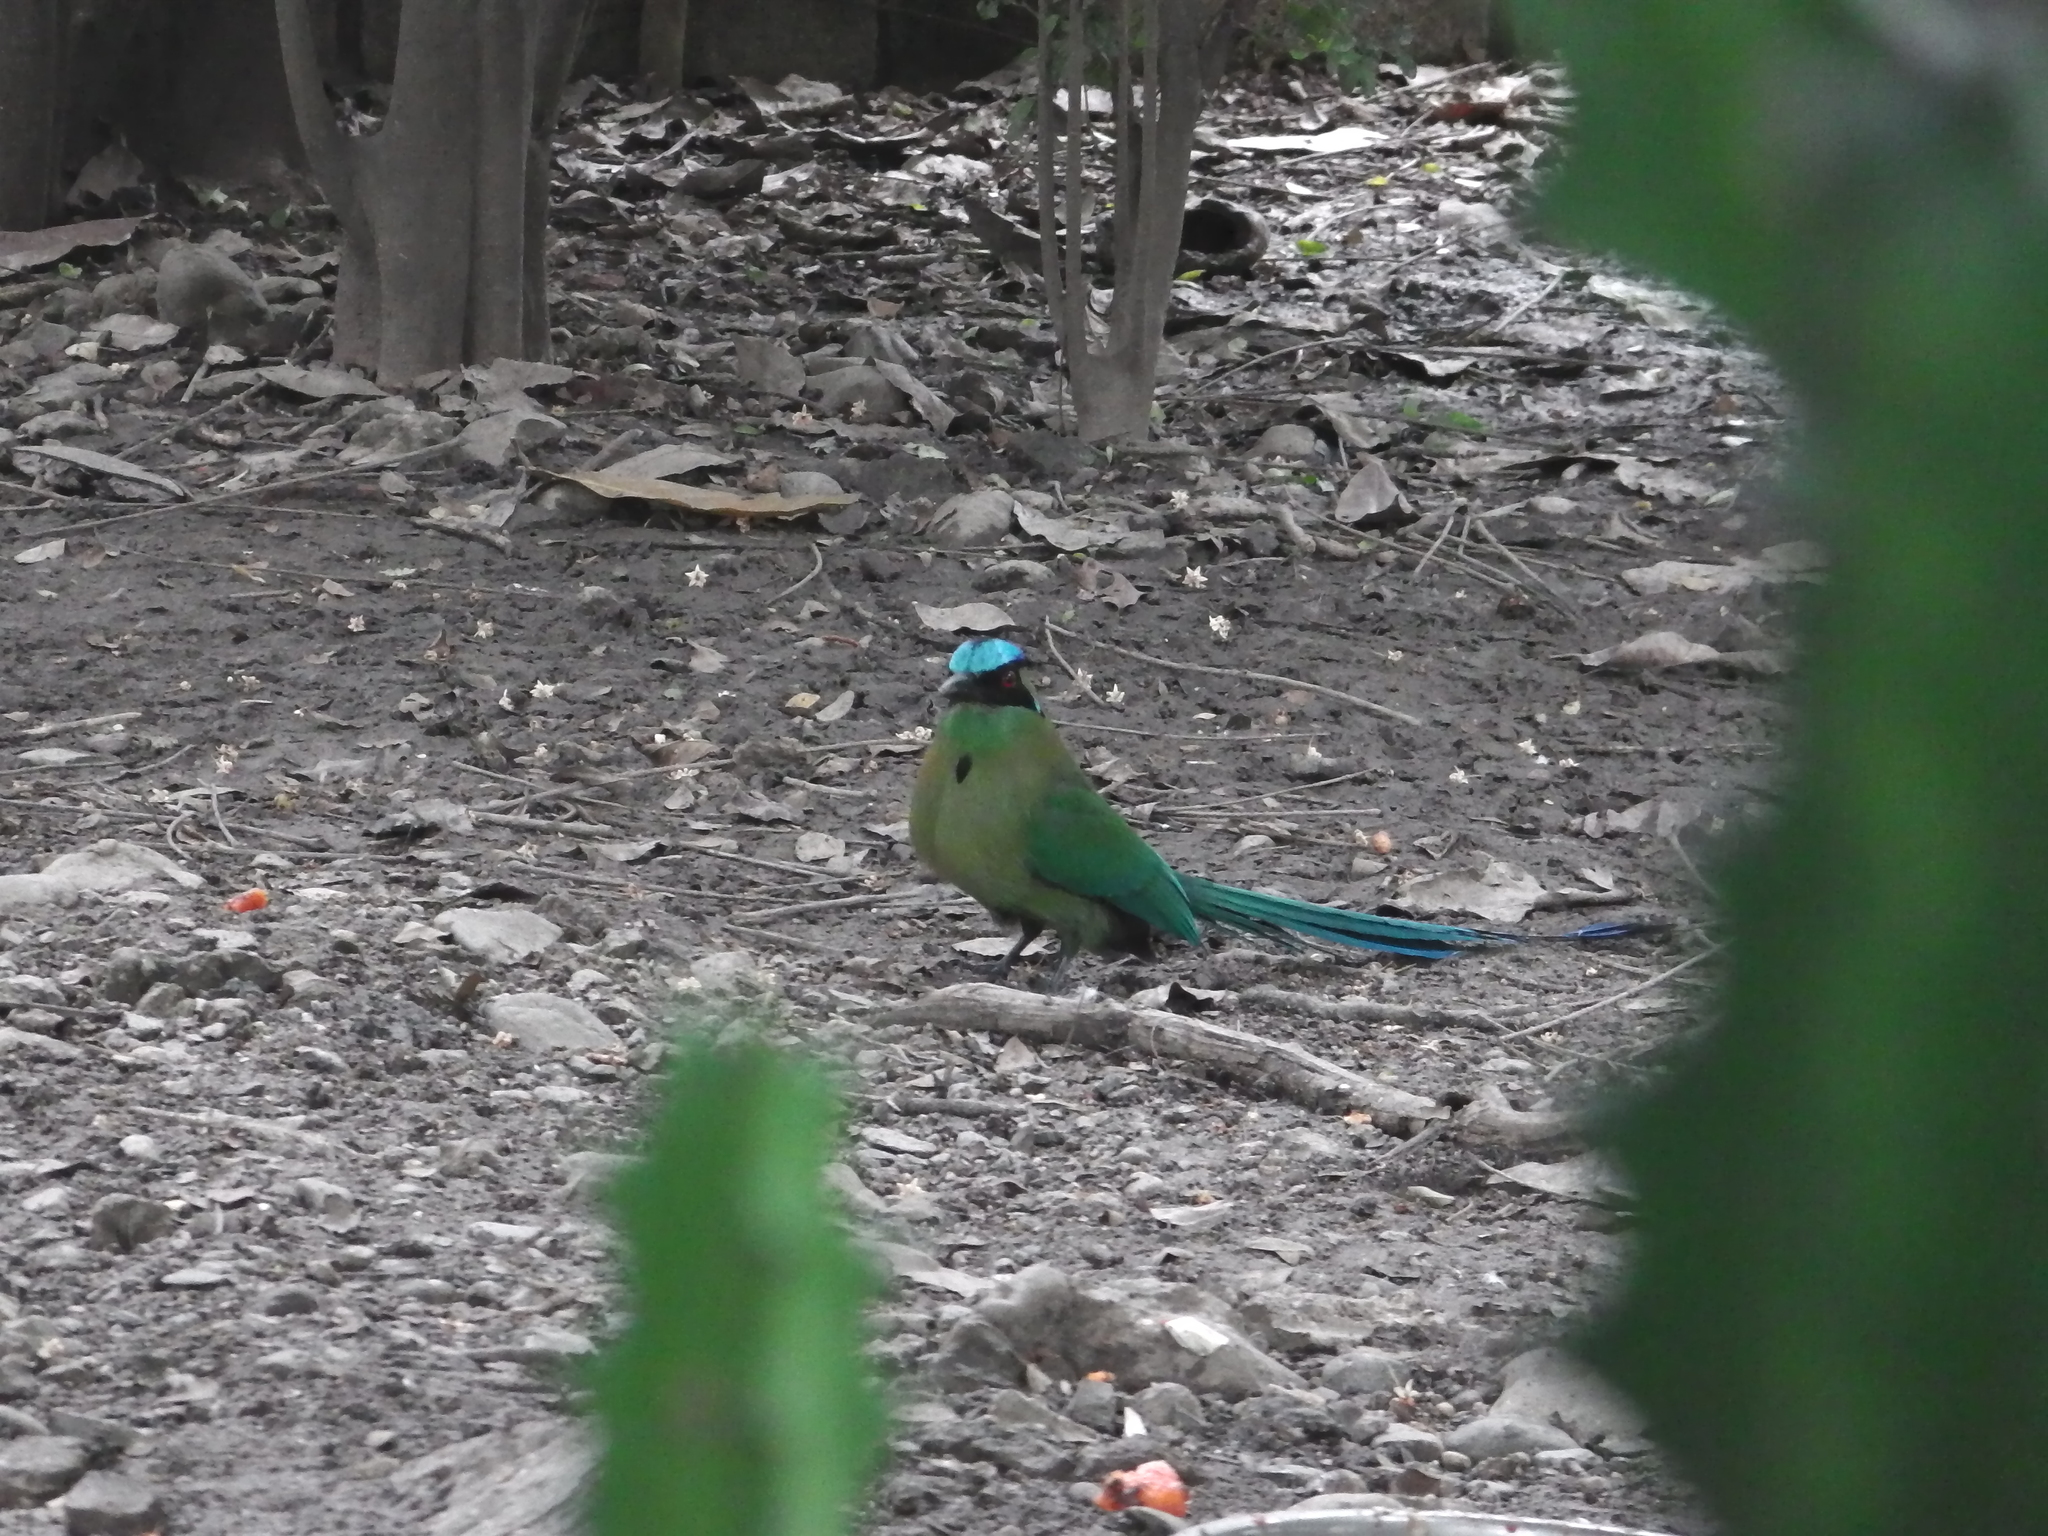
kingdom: Animalia
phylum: Chordata
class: Aves
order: Coraciiformes
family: Momotidae
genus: Momotus
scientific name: Momotus aequatorialis
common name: Andean motmot
